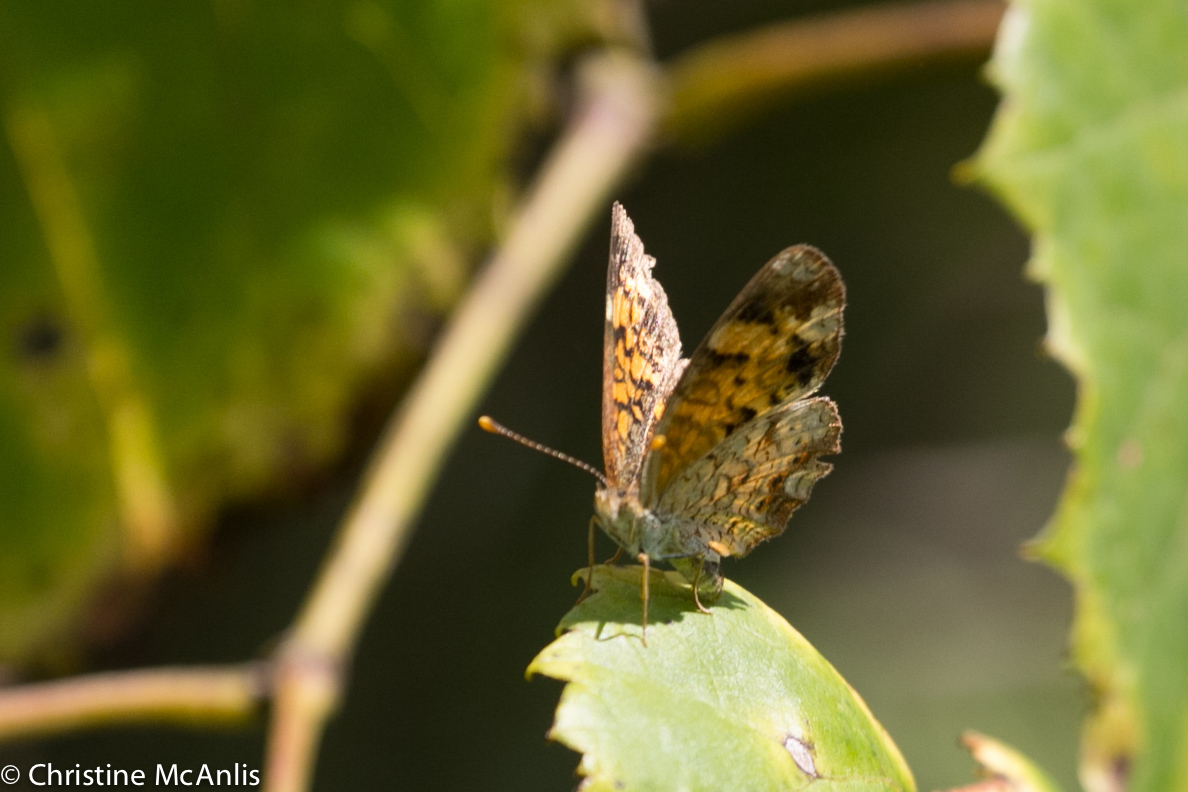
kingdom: Animalia
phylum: Arthropoda
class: Insecta
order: Lepidoptera
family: Nymphalidae
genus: Phyciodes
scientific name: Phyciodes tharos
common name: Pearl crescent
